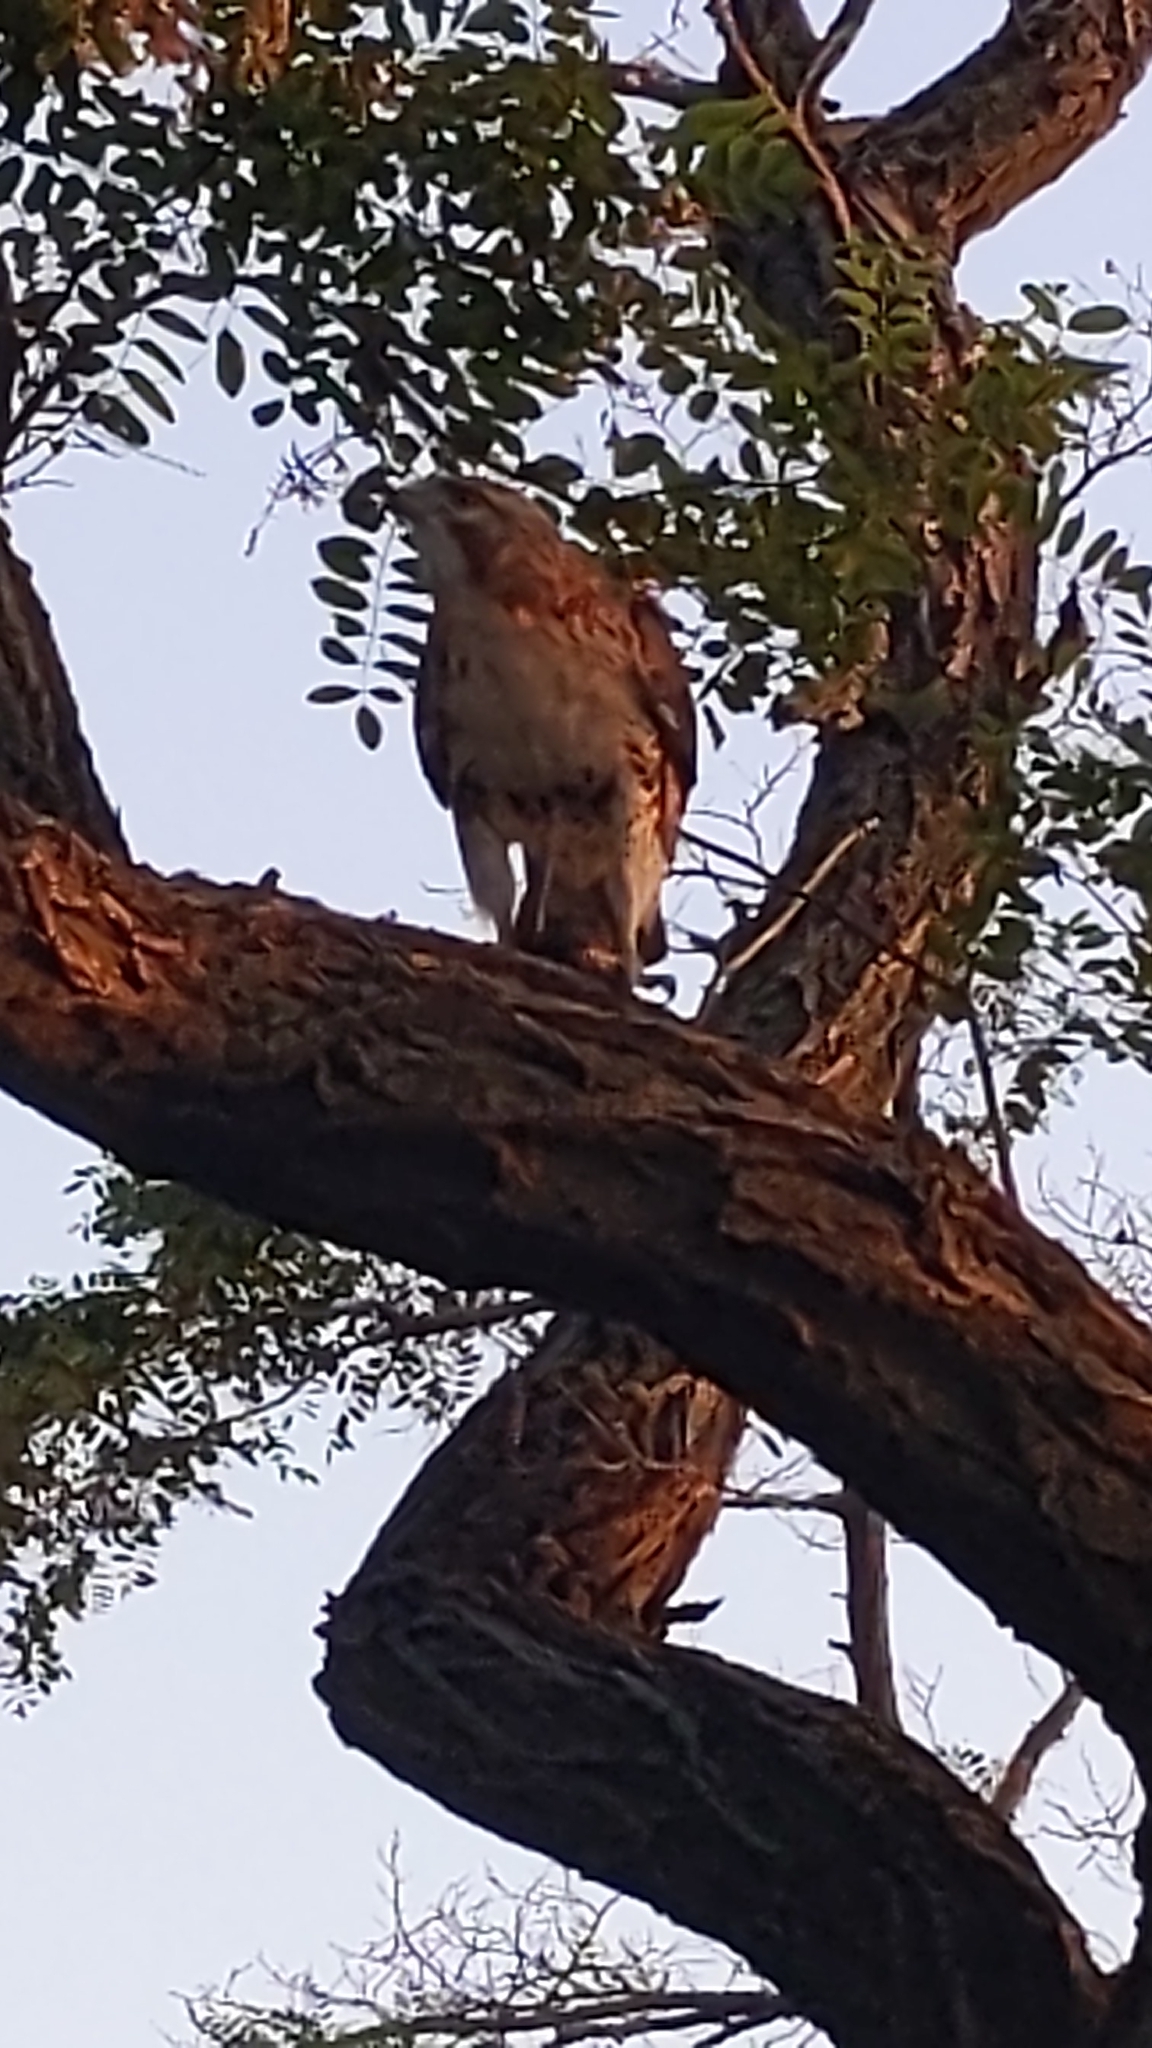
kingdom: Animalia
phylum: Chordata
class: Aves
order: Accipitriformes
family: Accipitridae
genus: Buteo
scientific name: Buteo jamaicensis
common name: Red-tailed hawk
